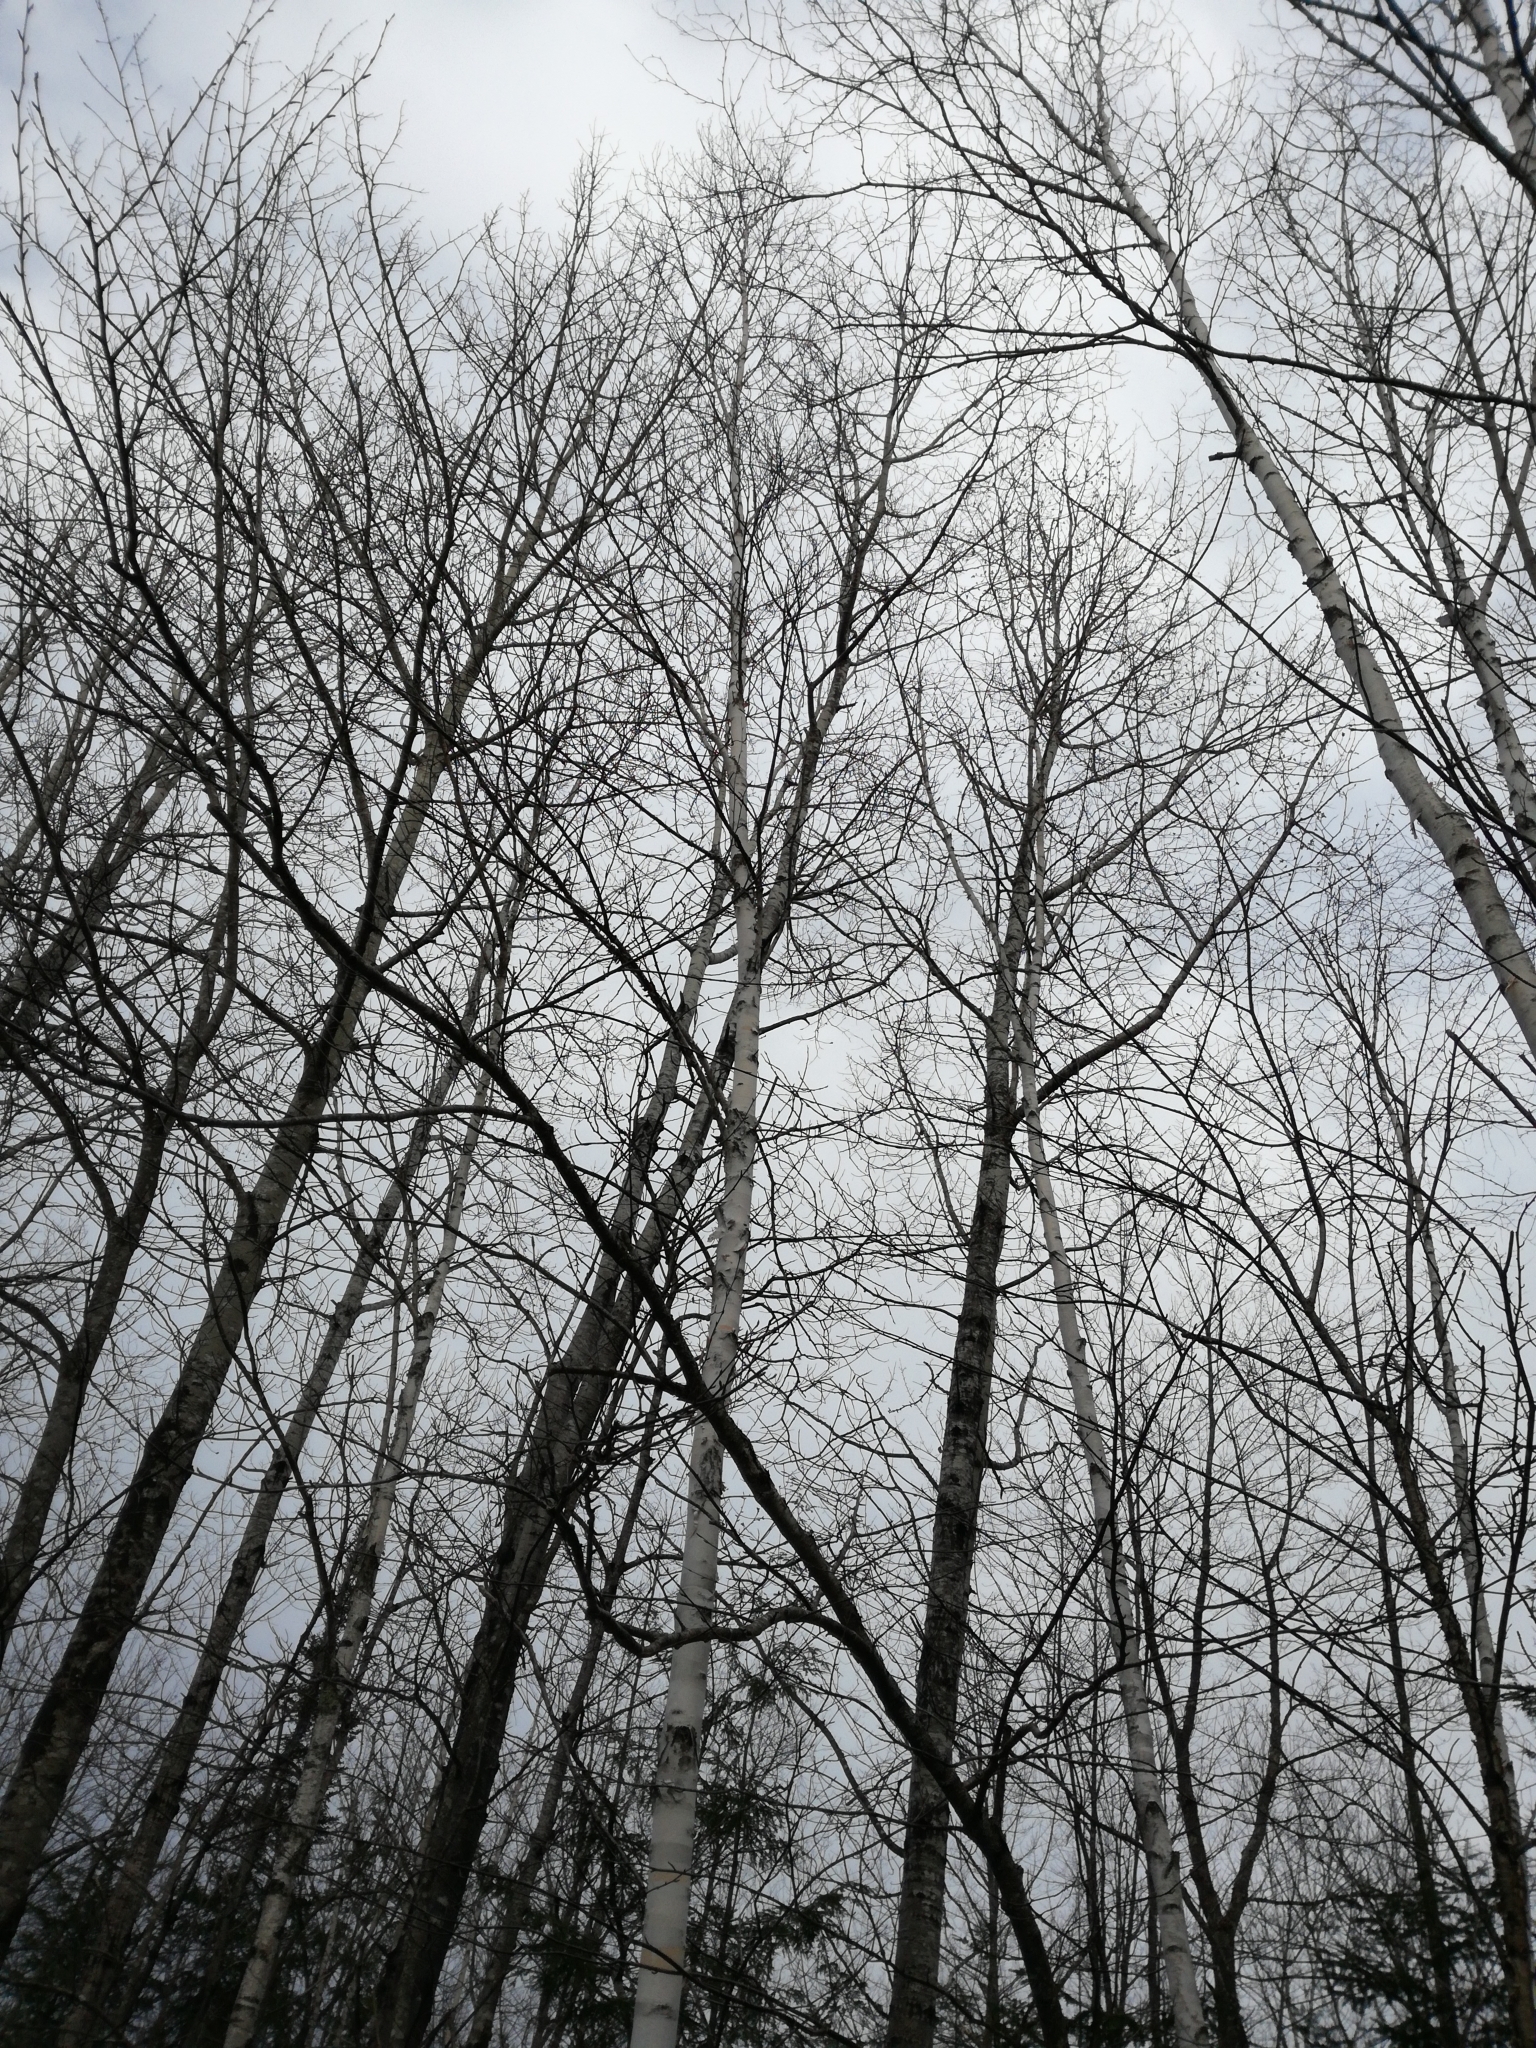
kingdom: Plantae
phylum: Tracheophyta
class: Magnoliopsida
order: Fagales
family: Betulaceae
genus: Betula
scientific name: Betula papyrifera
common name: Paper birch
